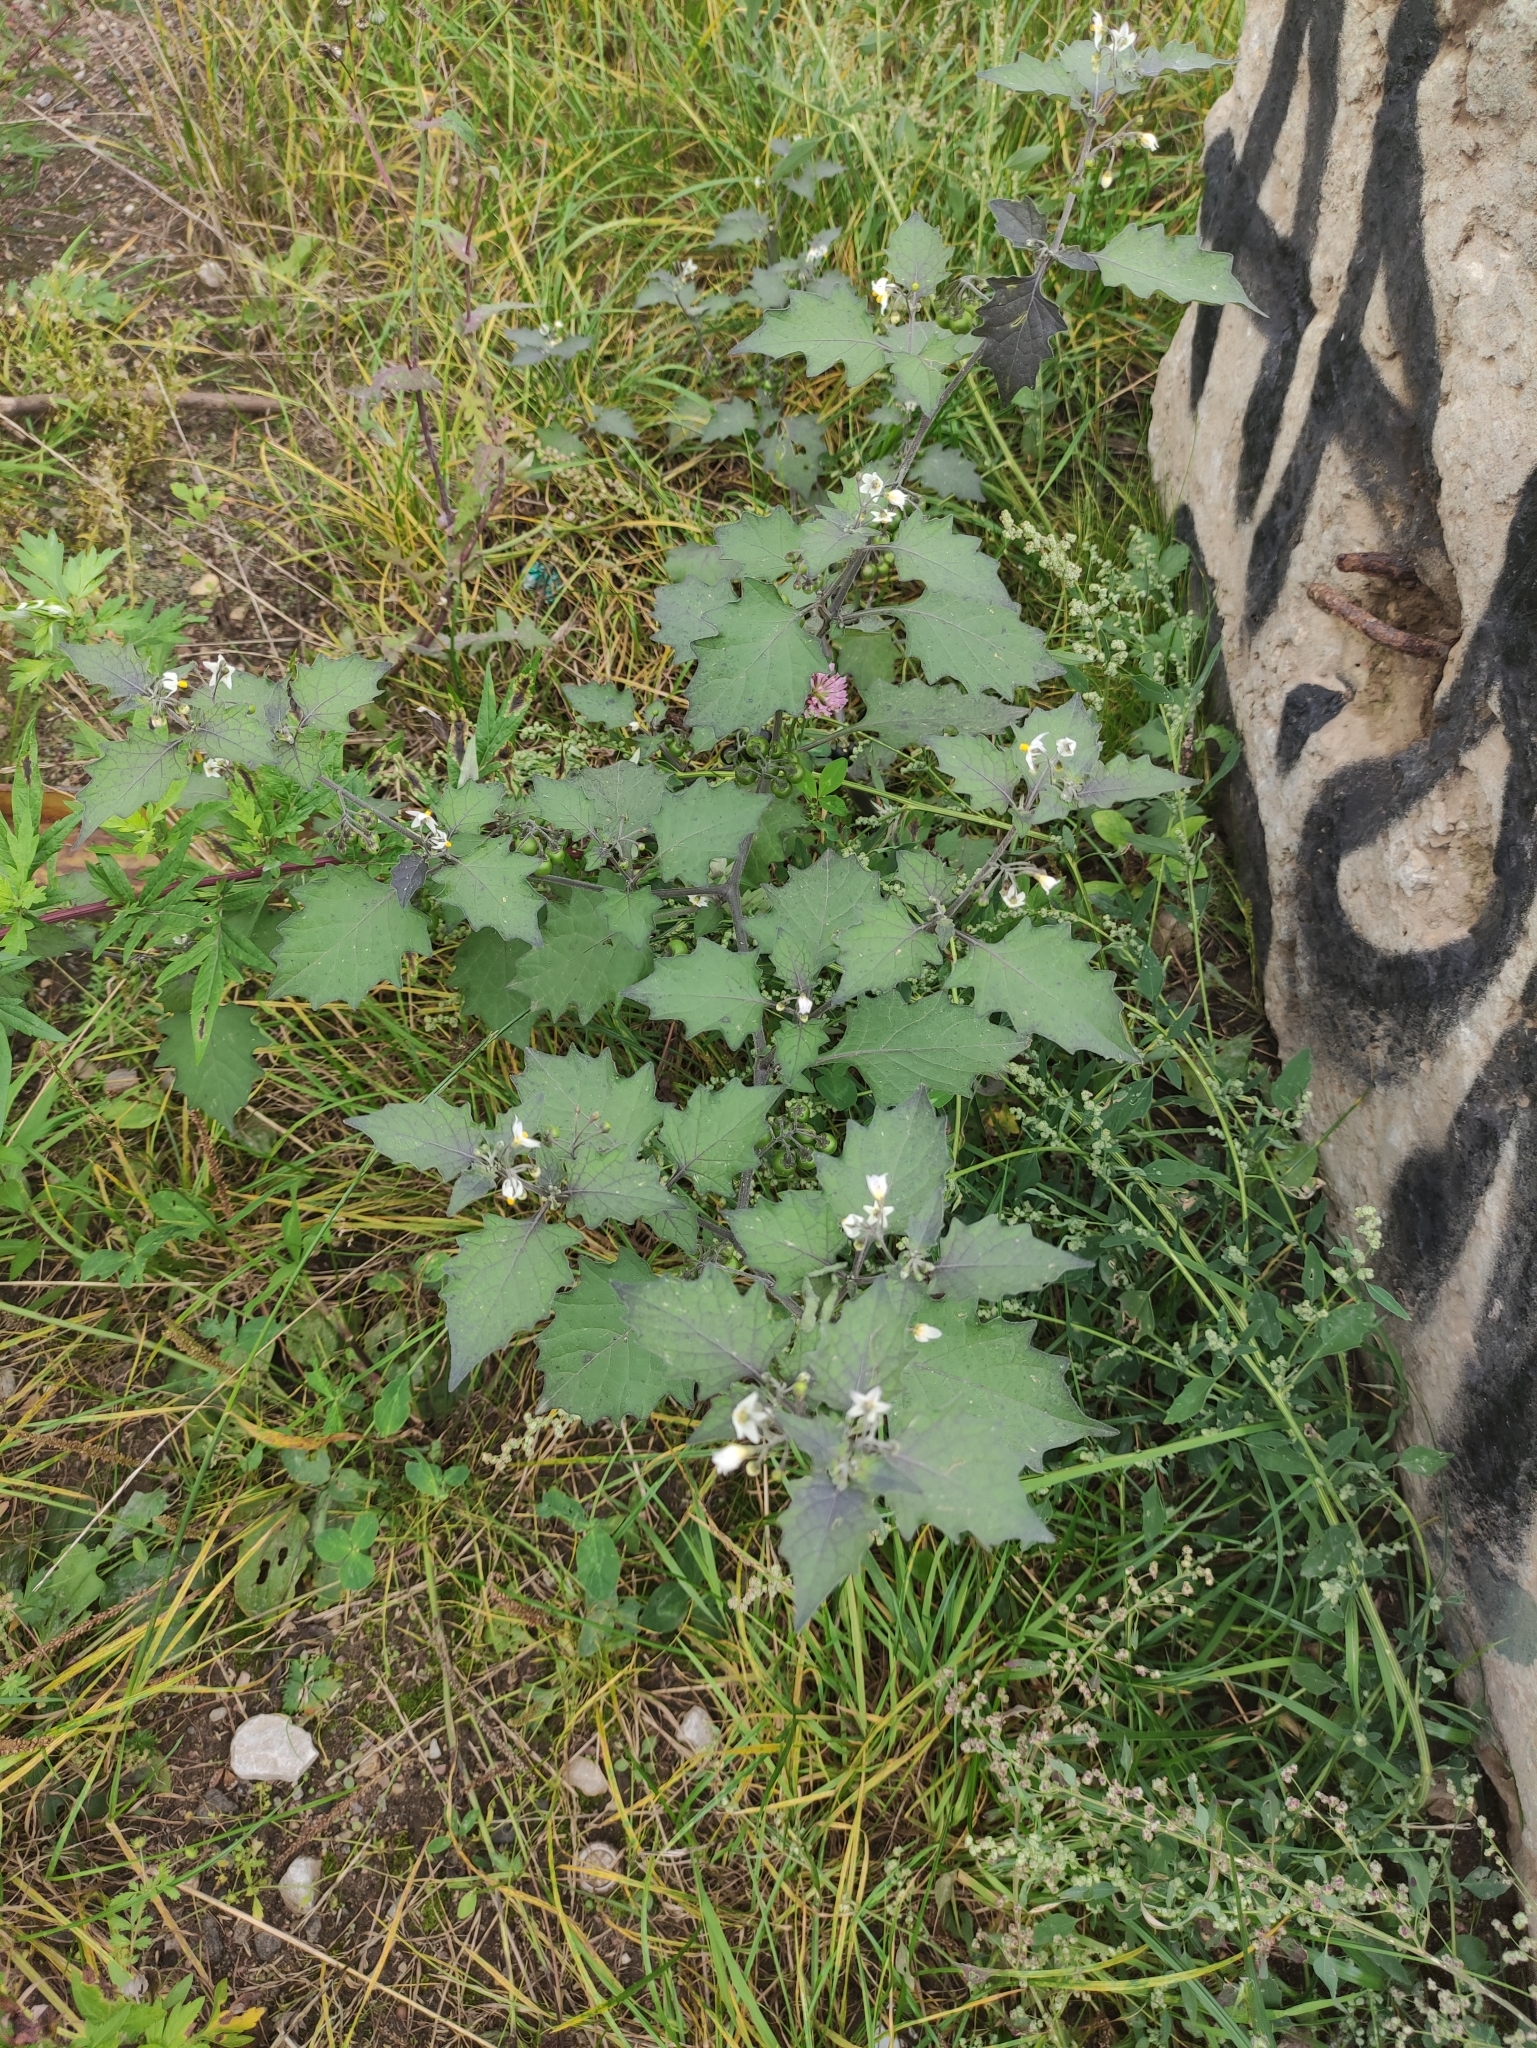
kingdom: Plantae
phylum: Tracheophyta
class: Magnoliopsida
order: Solanales
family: Solanaceae
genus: Solanum
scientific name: Solanum nigrum
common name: Black nightshade
